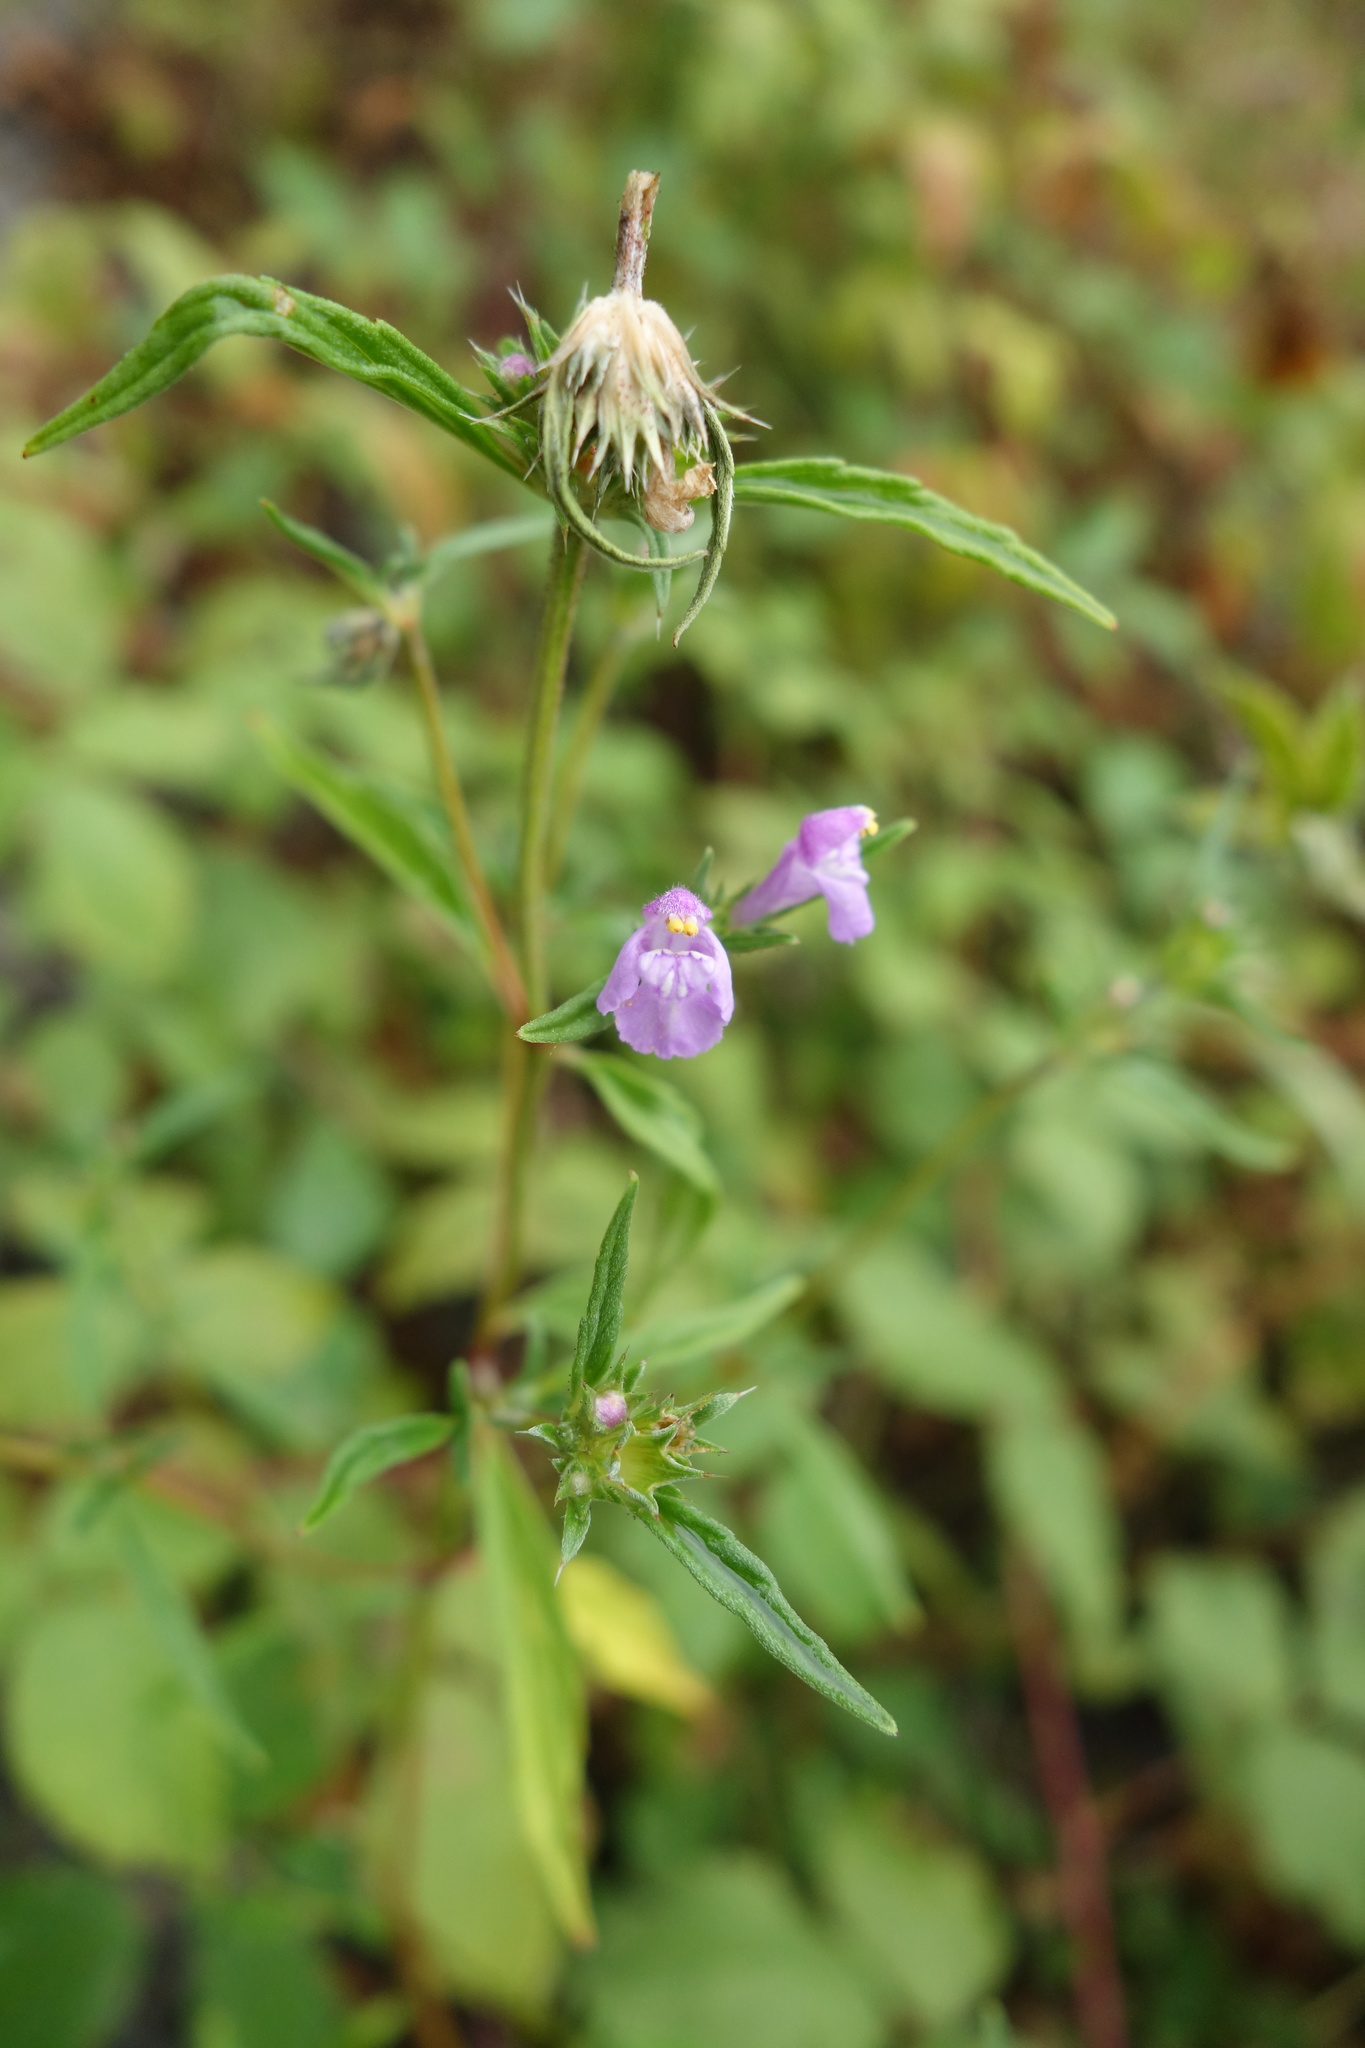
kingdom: Plantae
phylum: Tracheophyta
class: Magnoliopsida
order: Lamiales
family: Lamiaceae
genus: Galeopsis
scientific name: Galeopsis angustifolia
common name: Red hemp-nettle
